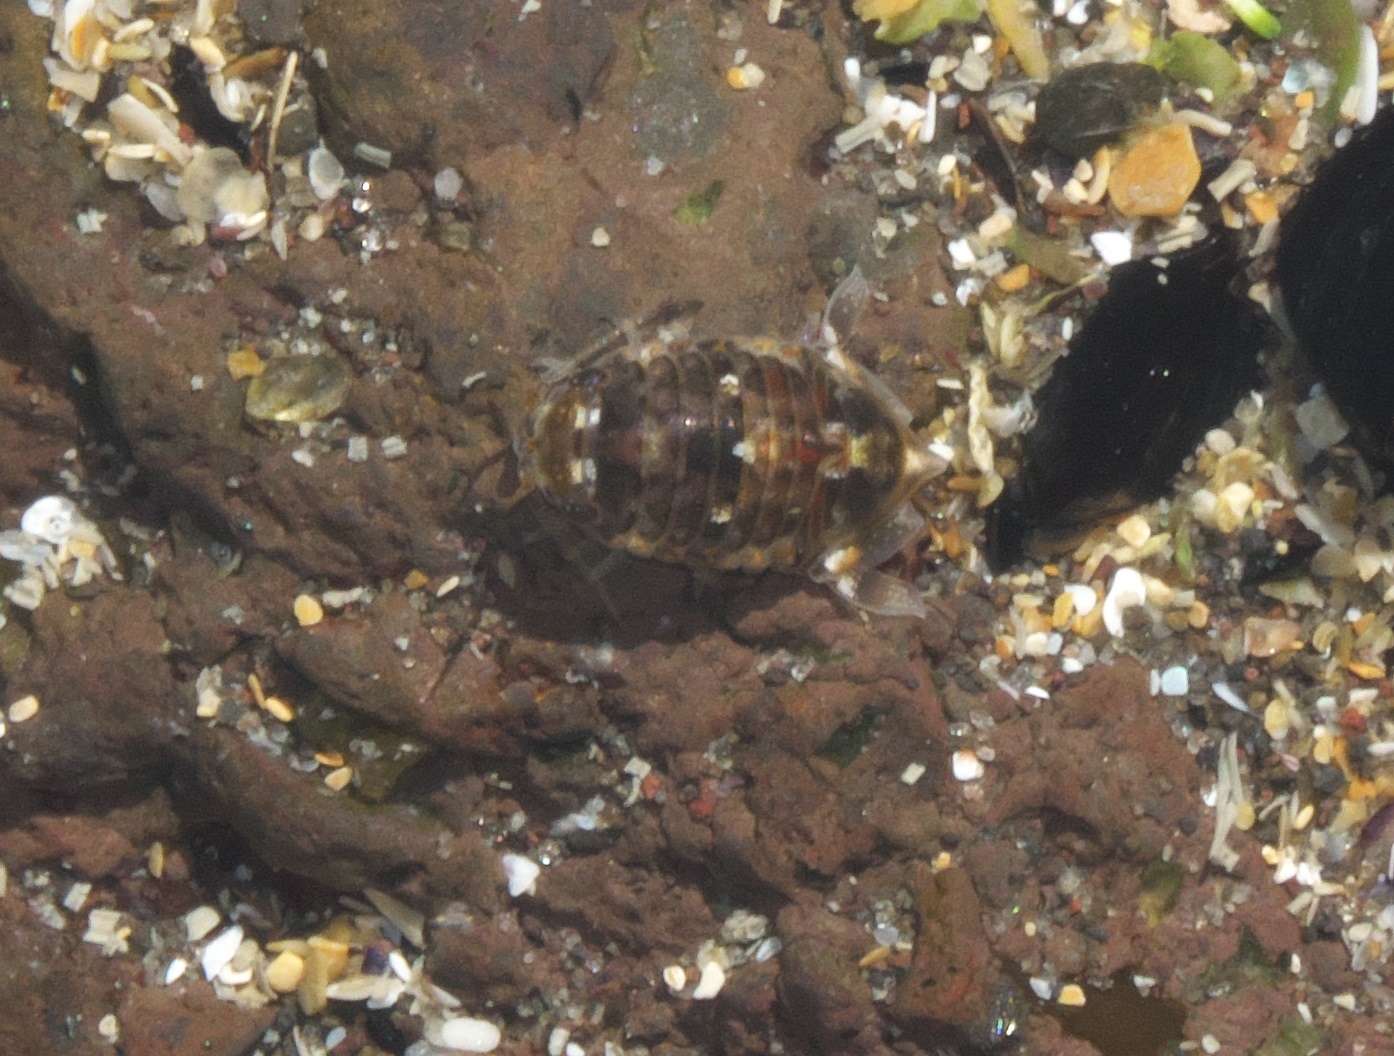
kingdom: Animalia
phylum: Arthropoda
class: Malacostraca
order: Isopoda
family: Sphaeromatidae
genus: Isocladus
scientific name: Isocladus armatus
